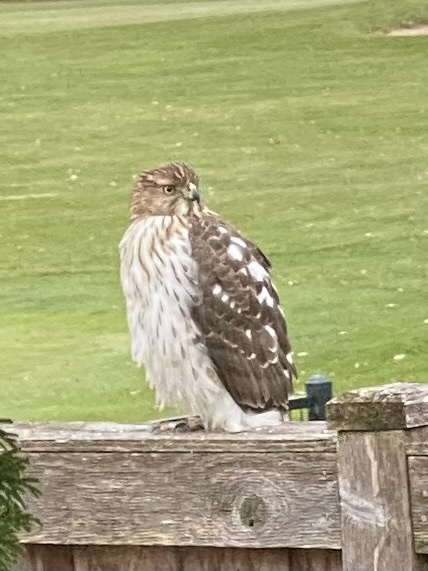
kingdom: Animalia
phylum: Chordata
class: Aves
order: Accipitriformes
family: Accipitridae
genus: Accipiter
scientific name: Accipiter cooperii
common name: Cooper's hawk
